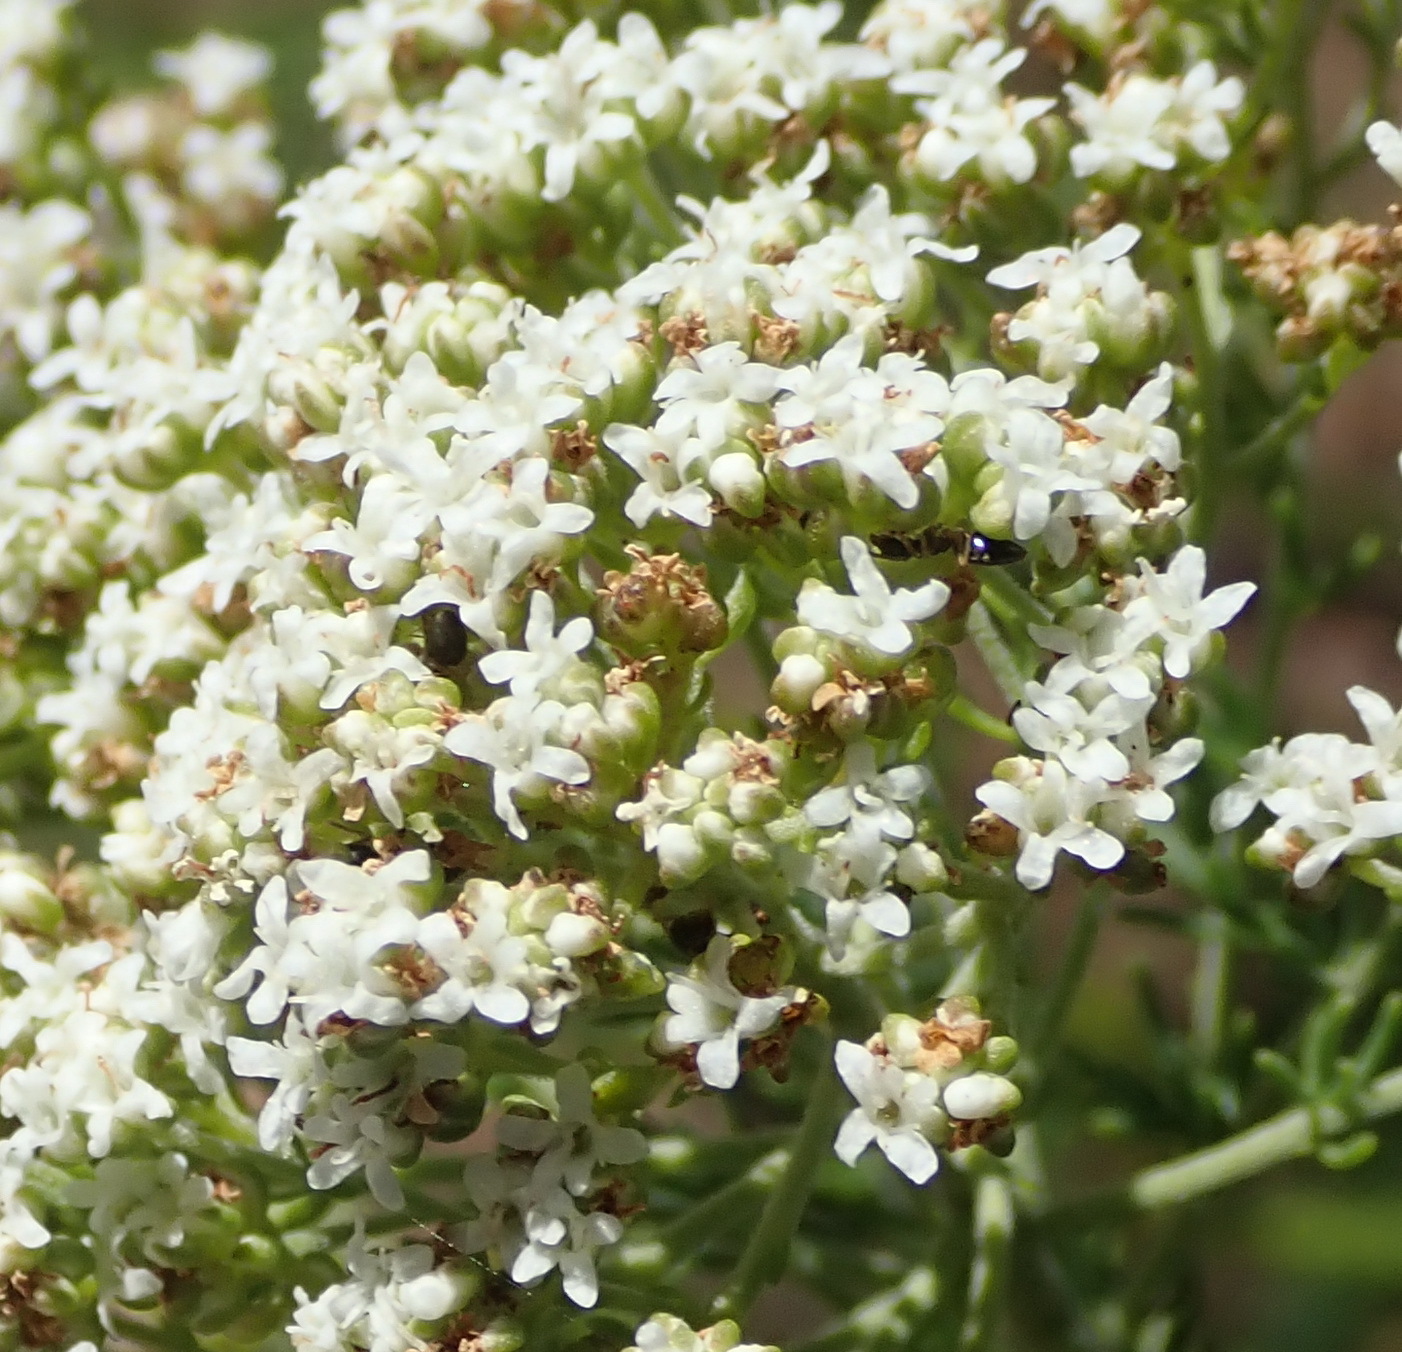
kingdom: Plantae
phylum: Tracheophyta
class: Magnoliopsida
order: Lamiales
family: Scrophulariaceae
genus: Selago
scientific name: Selago corymbosa
